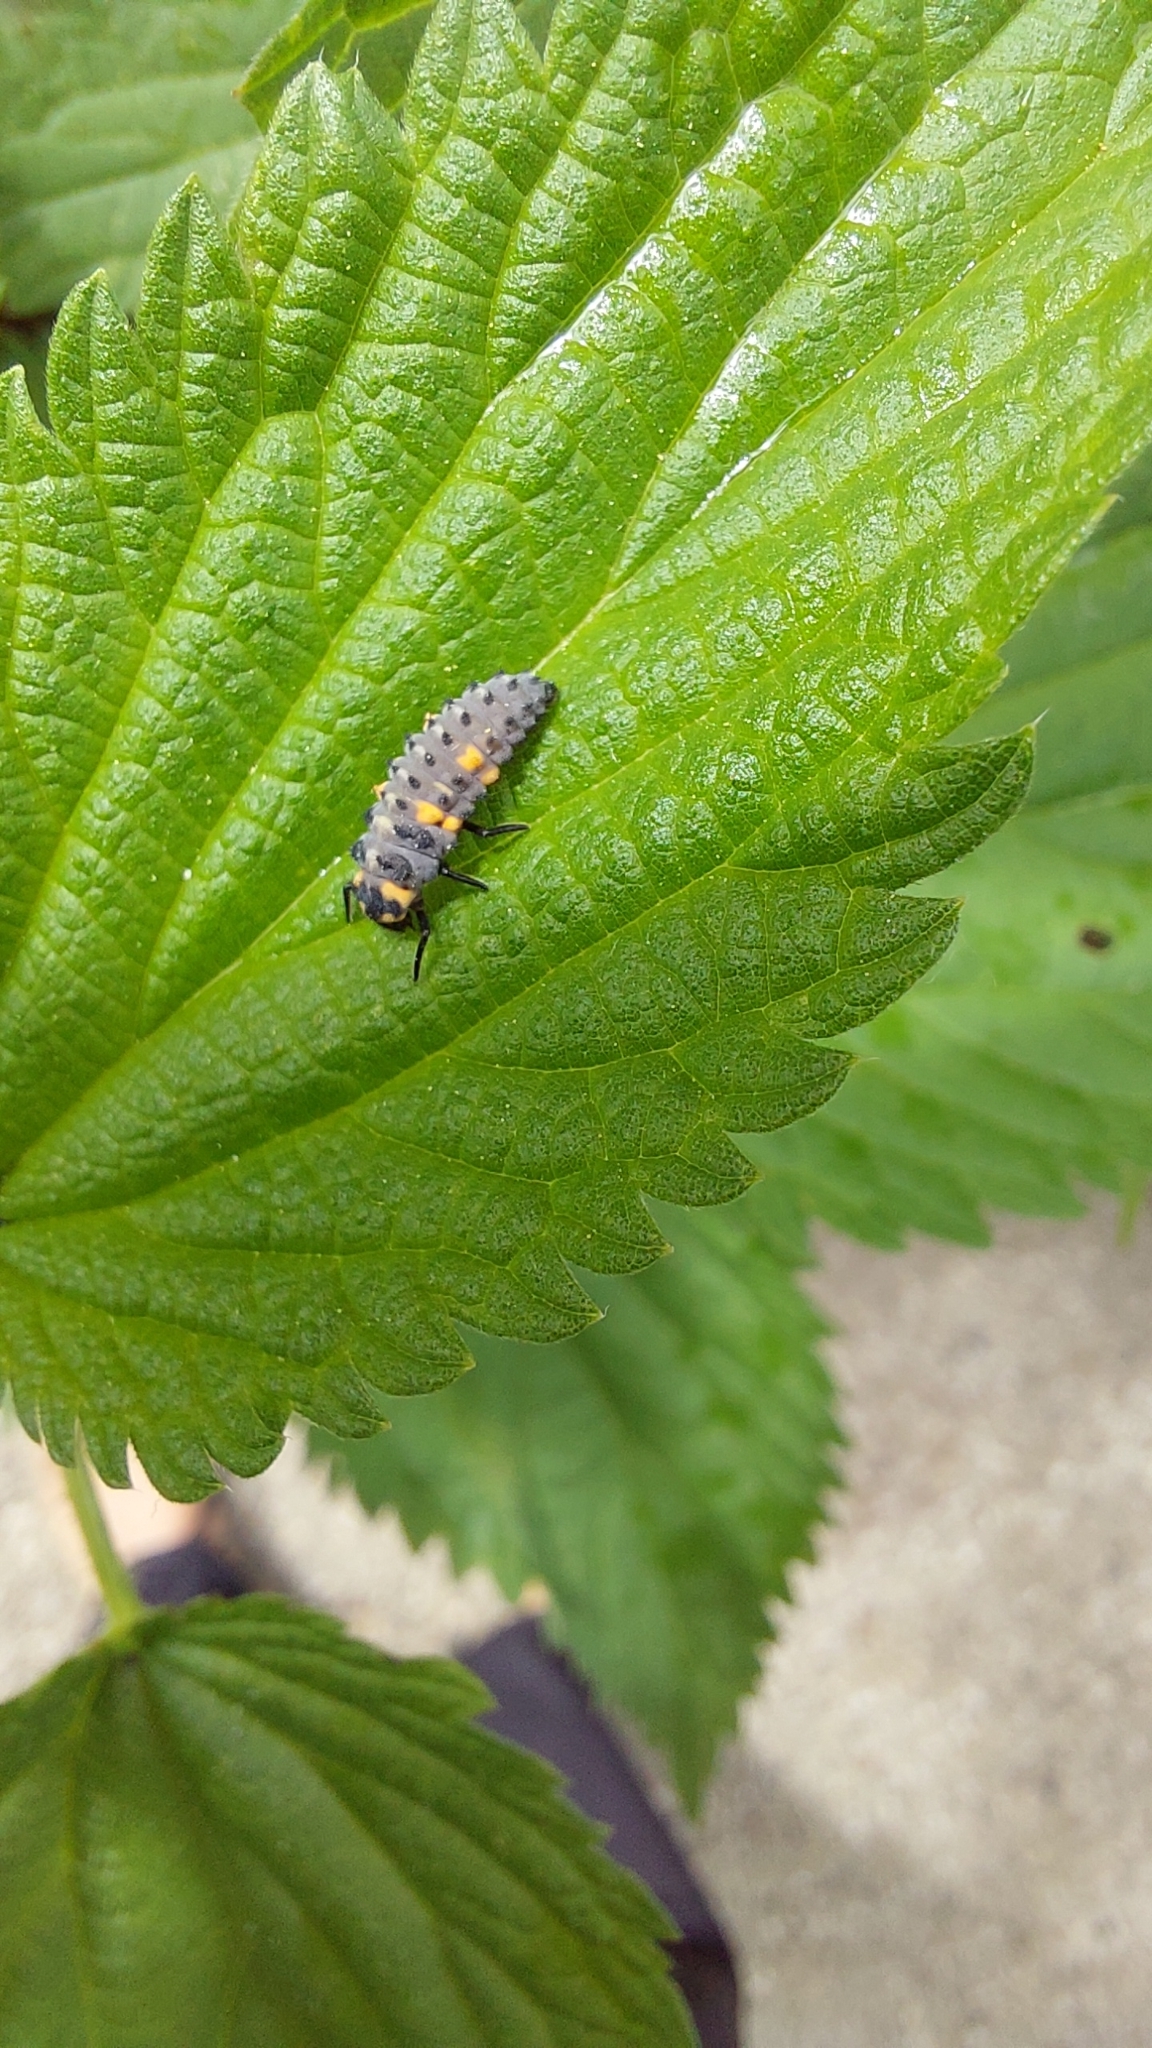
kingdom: Animalia
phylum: Arthropoda
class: Insecta
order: Coleoptera
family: Coccinellidae
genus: Coccinella
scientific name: Coccinella septempunctata
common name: Sevenspotted lady beetle
